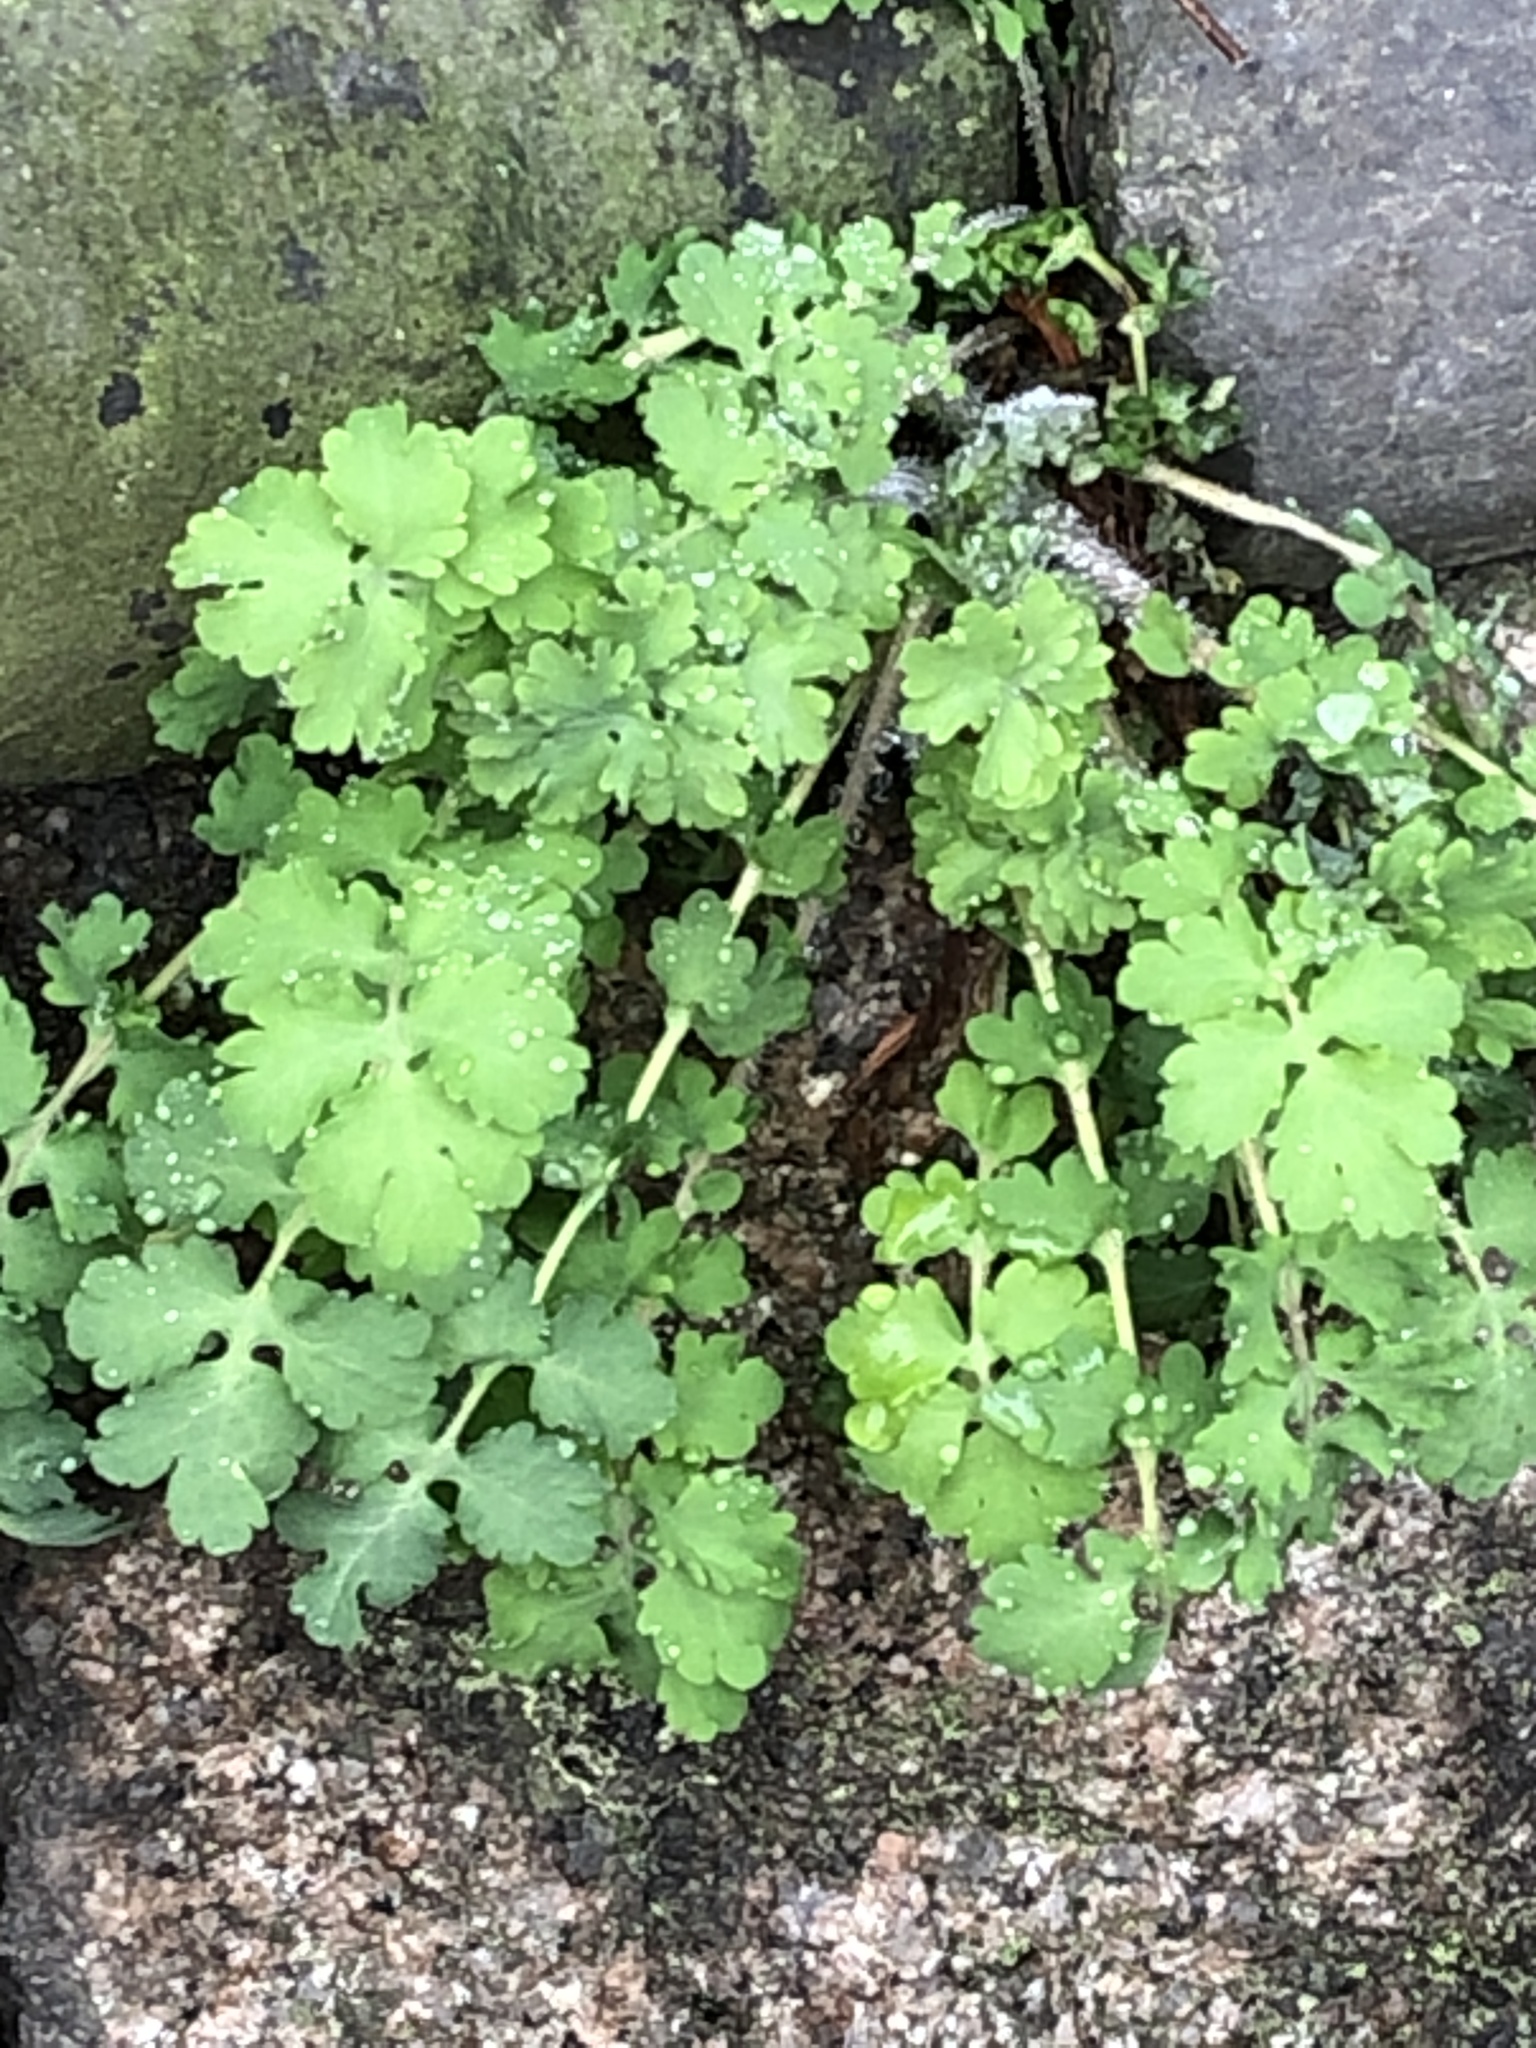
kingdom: Plantae
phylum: Tracheophyta
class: Magnoliopsida
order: Ranunculales
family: Papaveraceae
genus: Chelidonium
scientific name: Chelidonium majus
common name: Greater celandine
